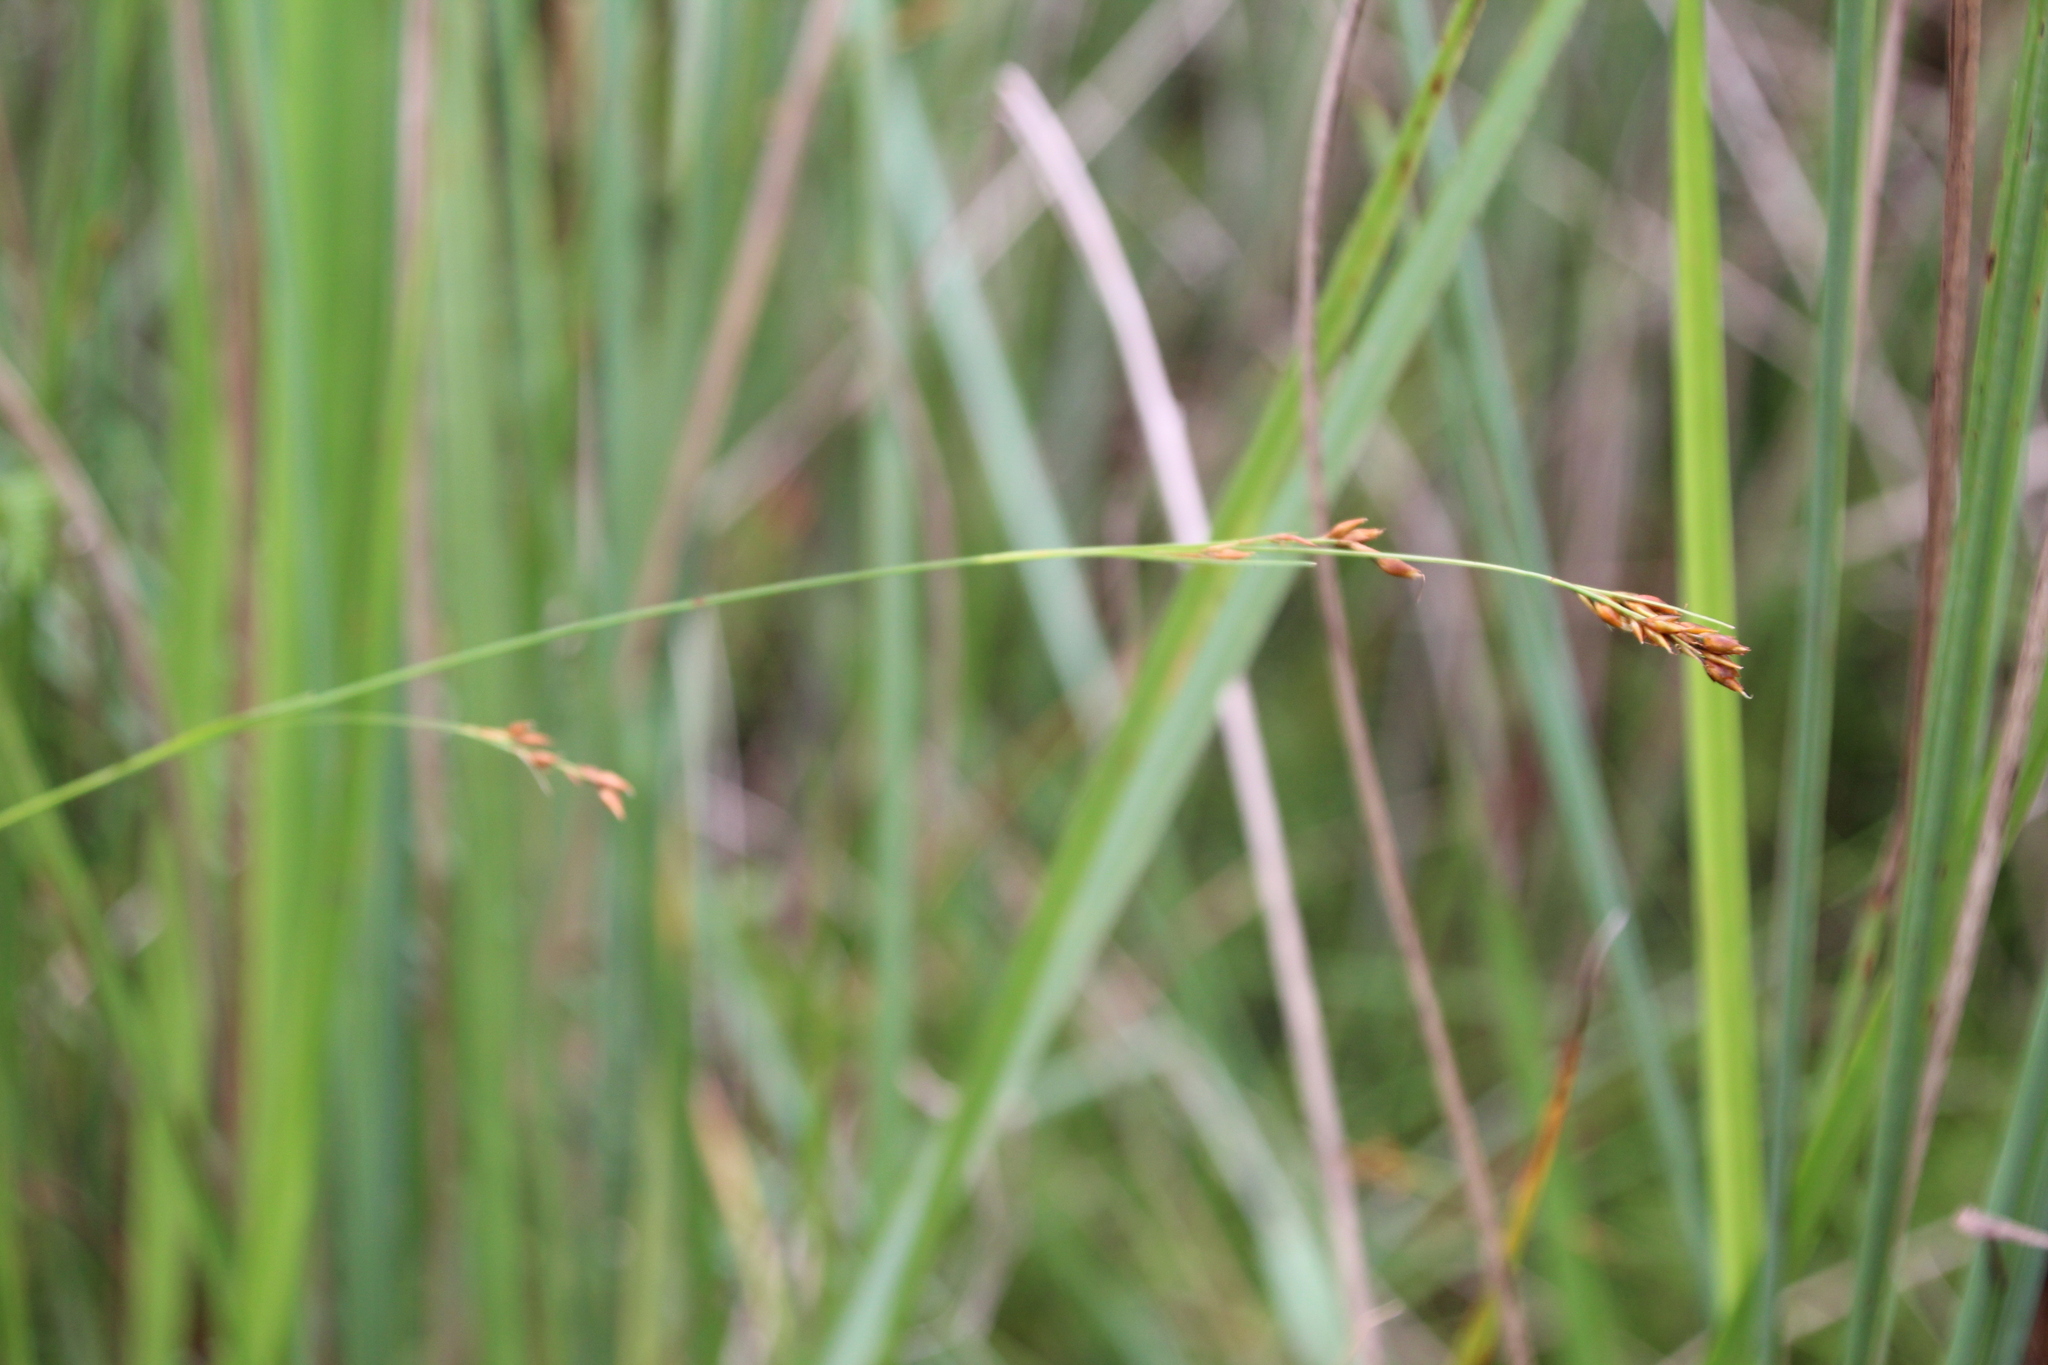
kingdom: Plantae
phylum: Tracheophyta
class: Liliopsida
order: Poales
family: Cyperaceae
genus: Rhynchospora
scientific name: Rhynchospora angolensis
